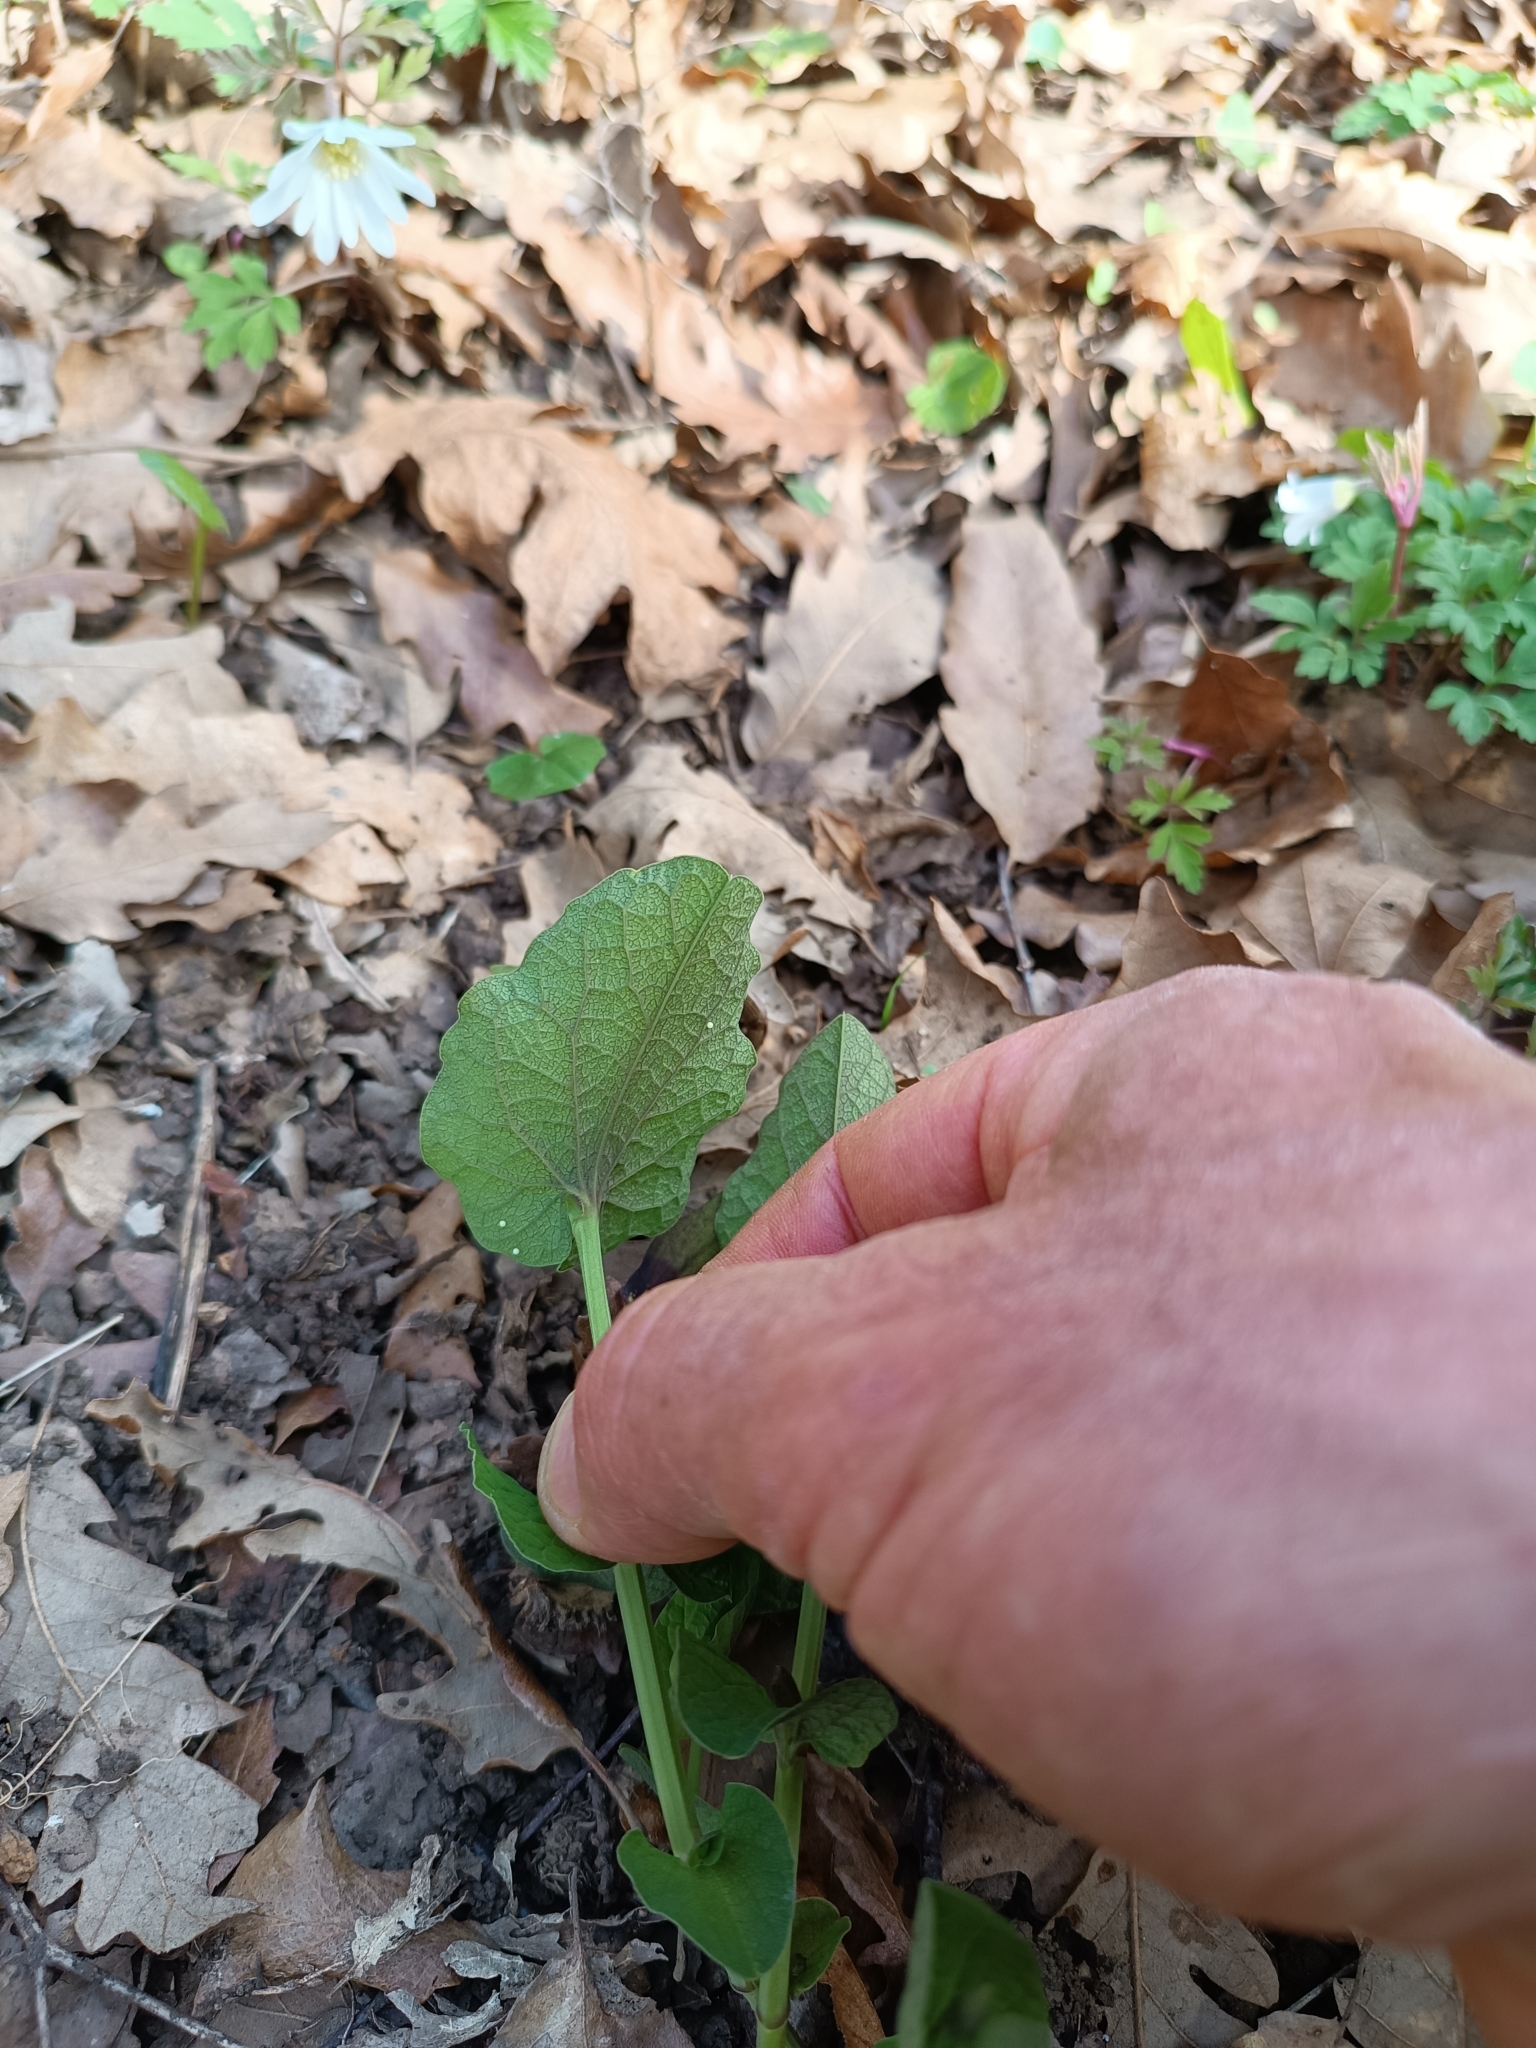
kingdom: Animalia
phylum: Arthropoda
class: Insecta
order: Lepidoptera
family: Papilionidae
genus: Zerynthia
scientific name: Zerynthia cassandra
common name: Italian festoon
